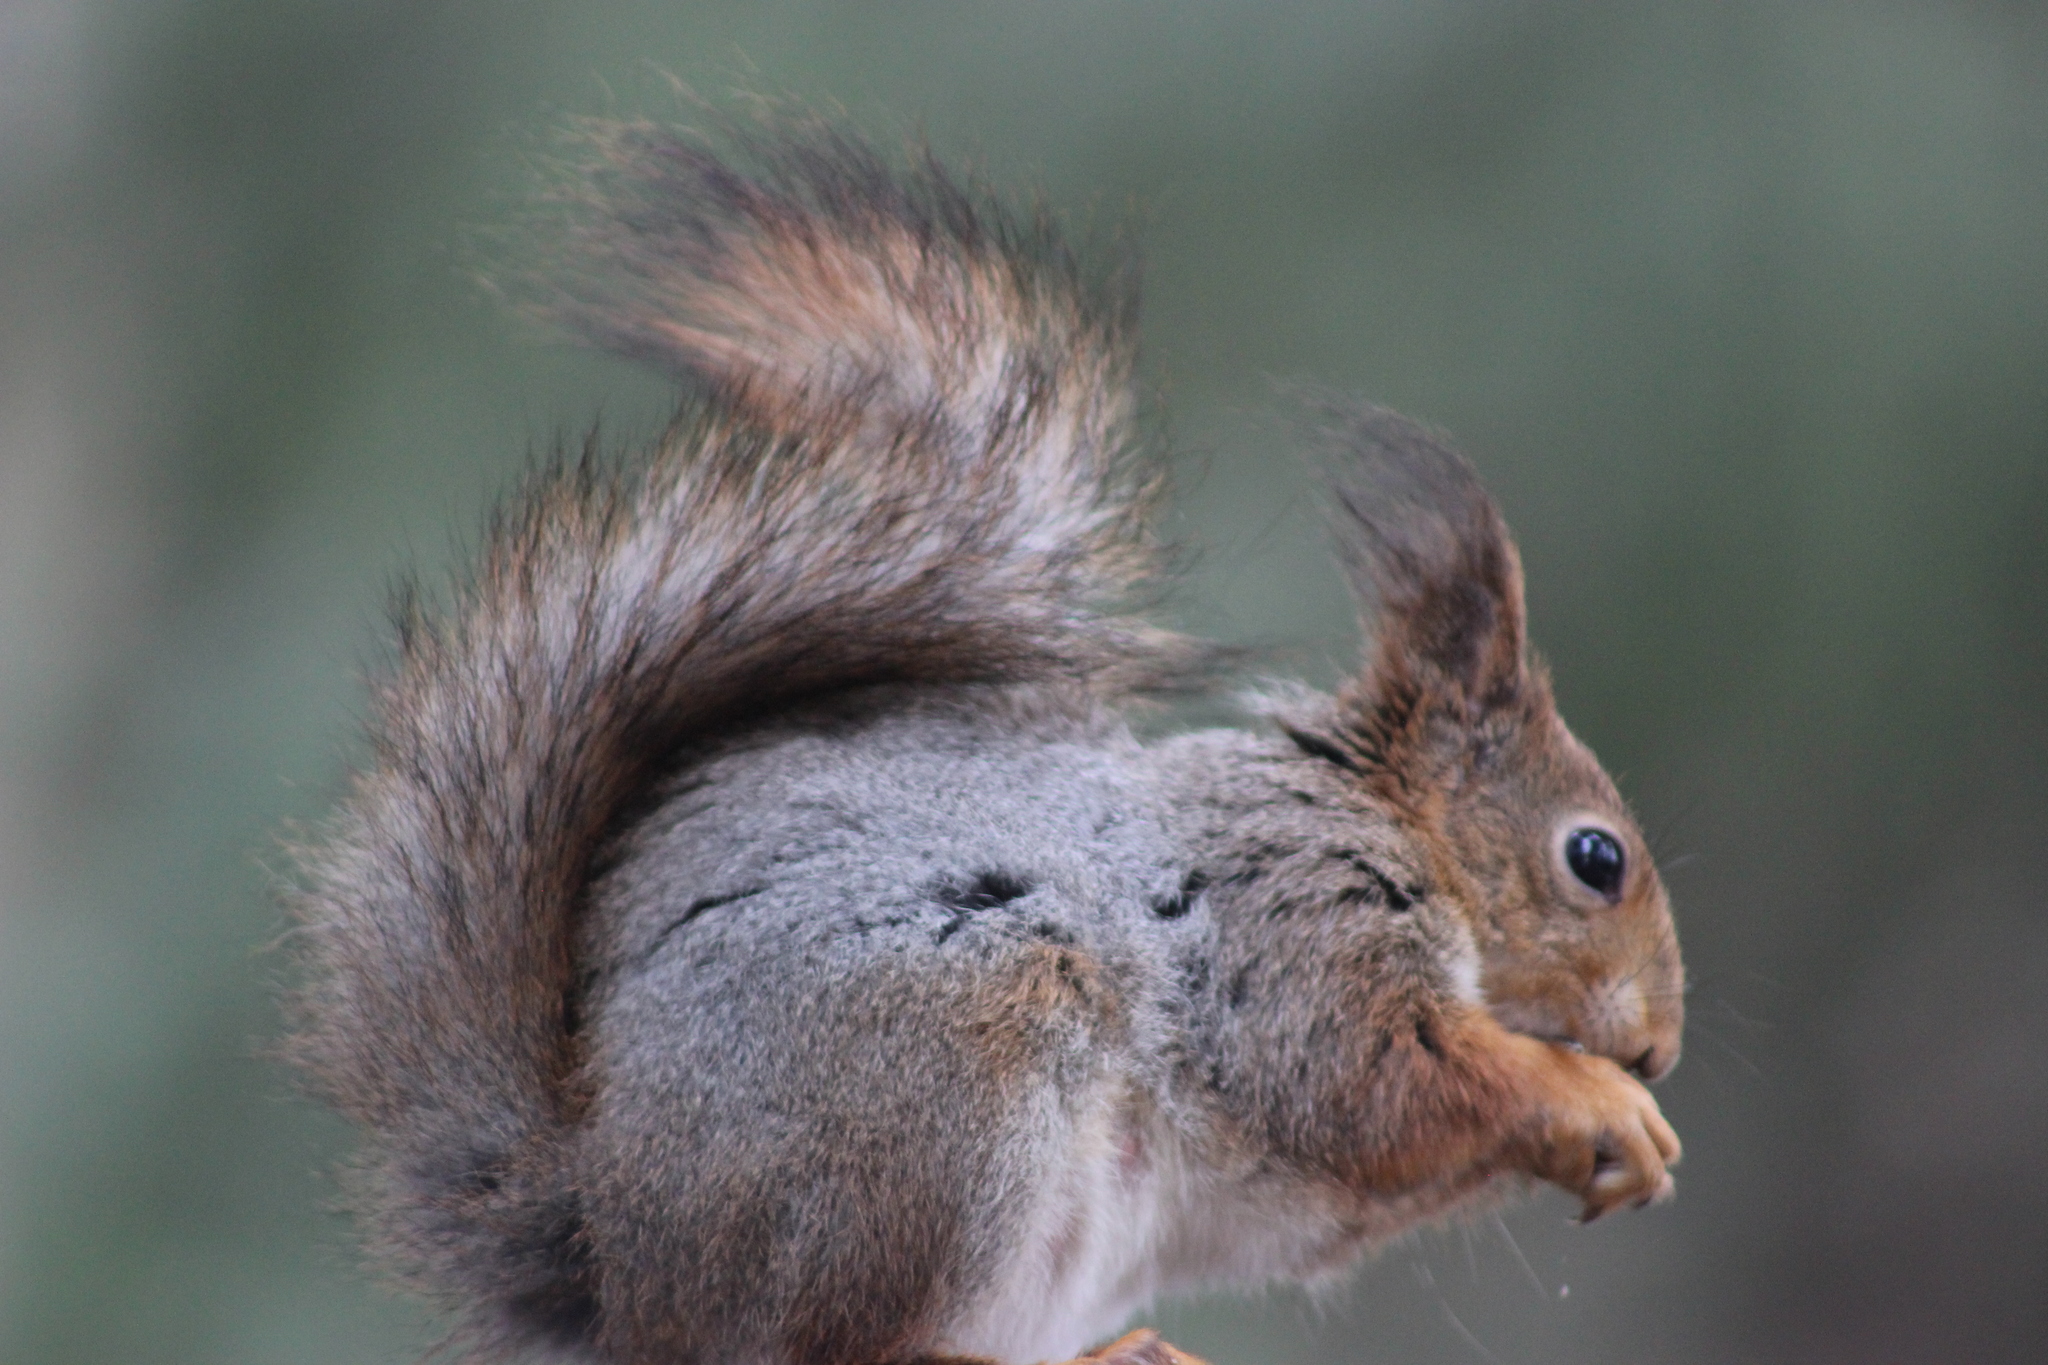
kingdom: Animalia
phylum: Chordata
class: Mammalia
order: Rodentia
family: Sciuridae
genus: Sciurus
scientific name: Sciurus vulgaris
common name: Eurasian red squirrel
